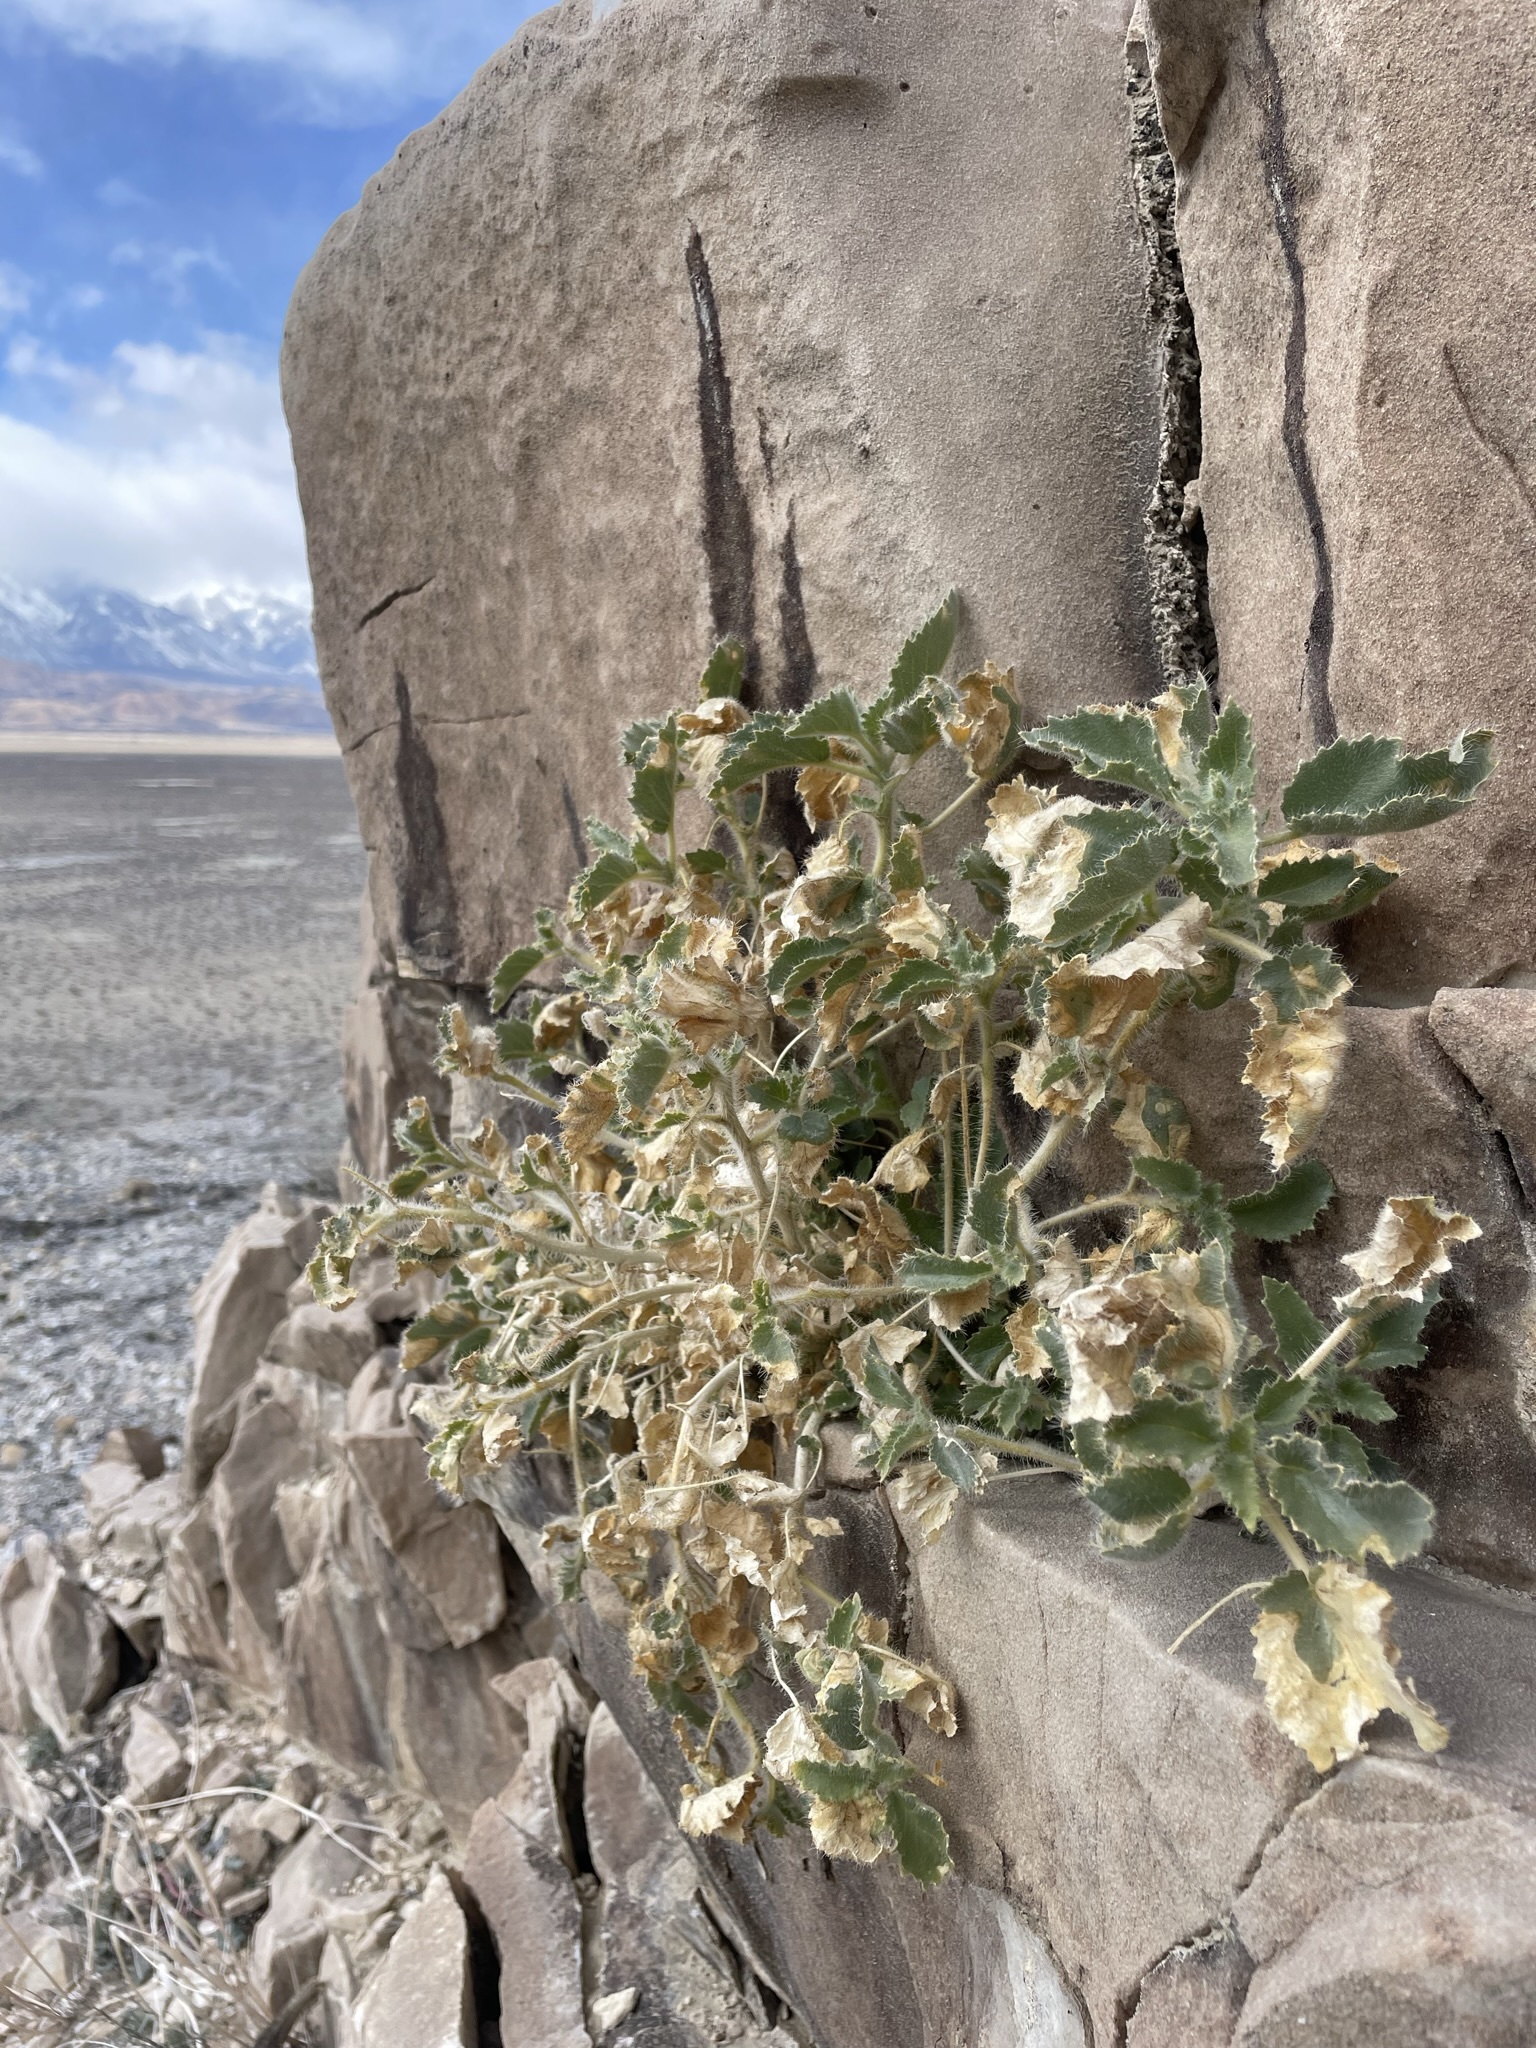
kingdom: Plantae
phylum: Tracheophyta
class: Magnoliopsida
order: Cornales
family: Loasaceae
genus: Eucnide
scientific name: Eucnide urens
